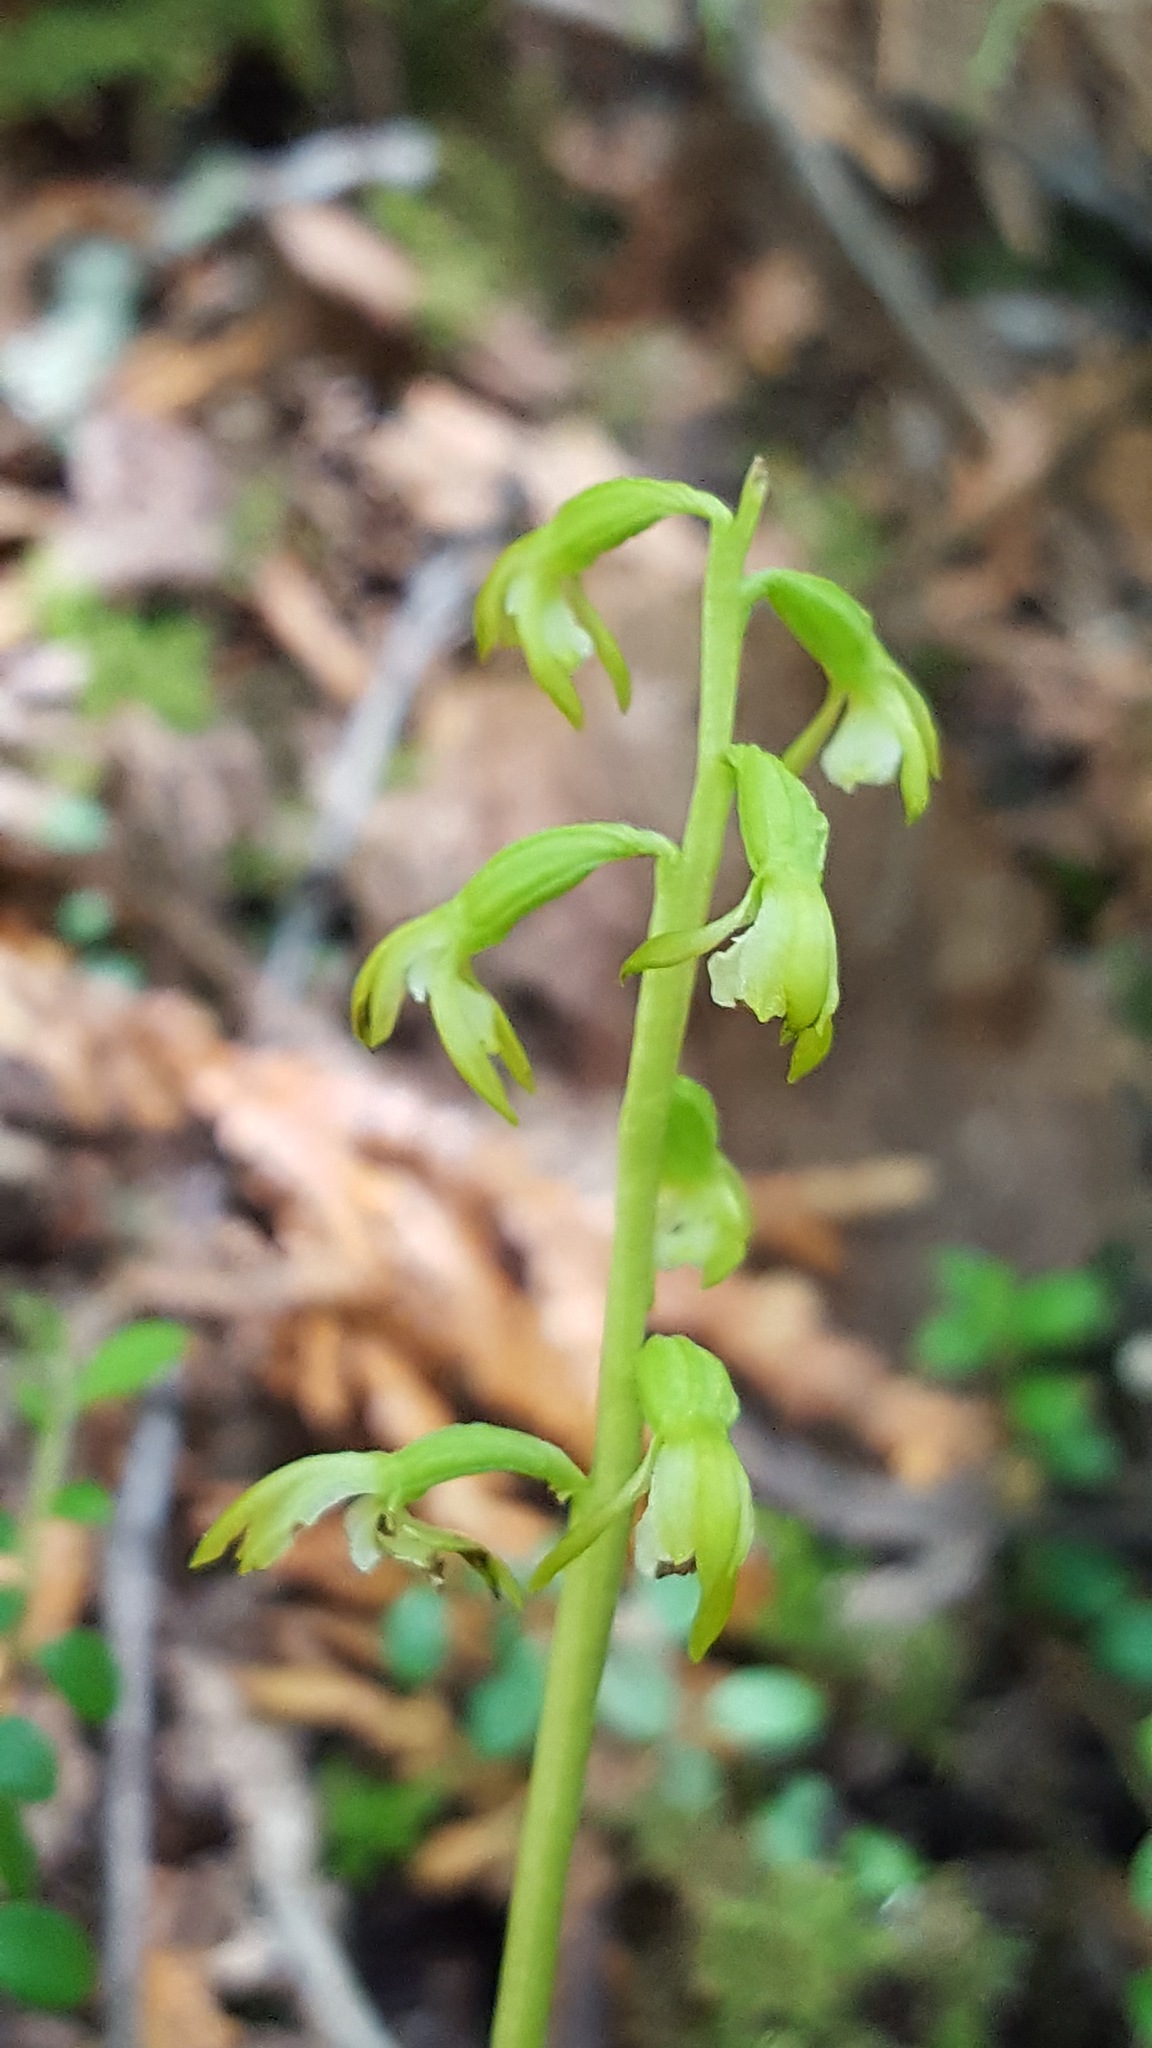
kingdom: Plantae
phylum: Tracheophyta
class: Liliopsida
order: Asparagales
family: Orchidaceae
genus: Corallorhiza
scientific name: Corallorhiza trifida
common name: Yellow coralroot
